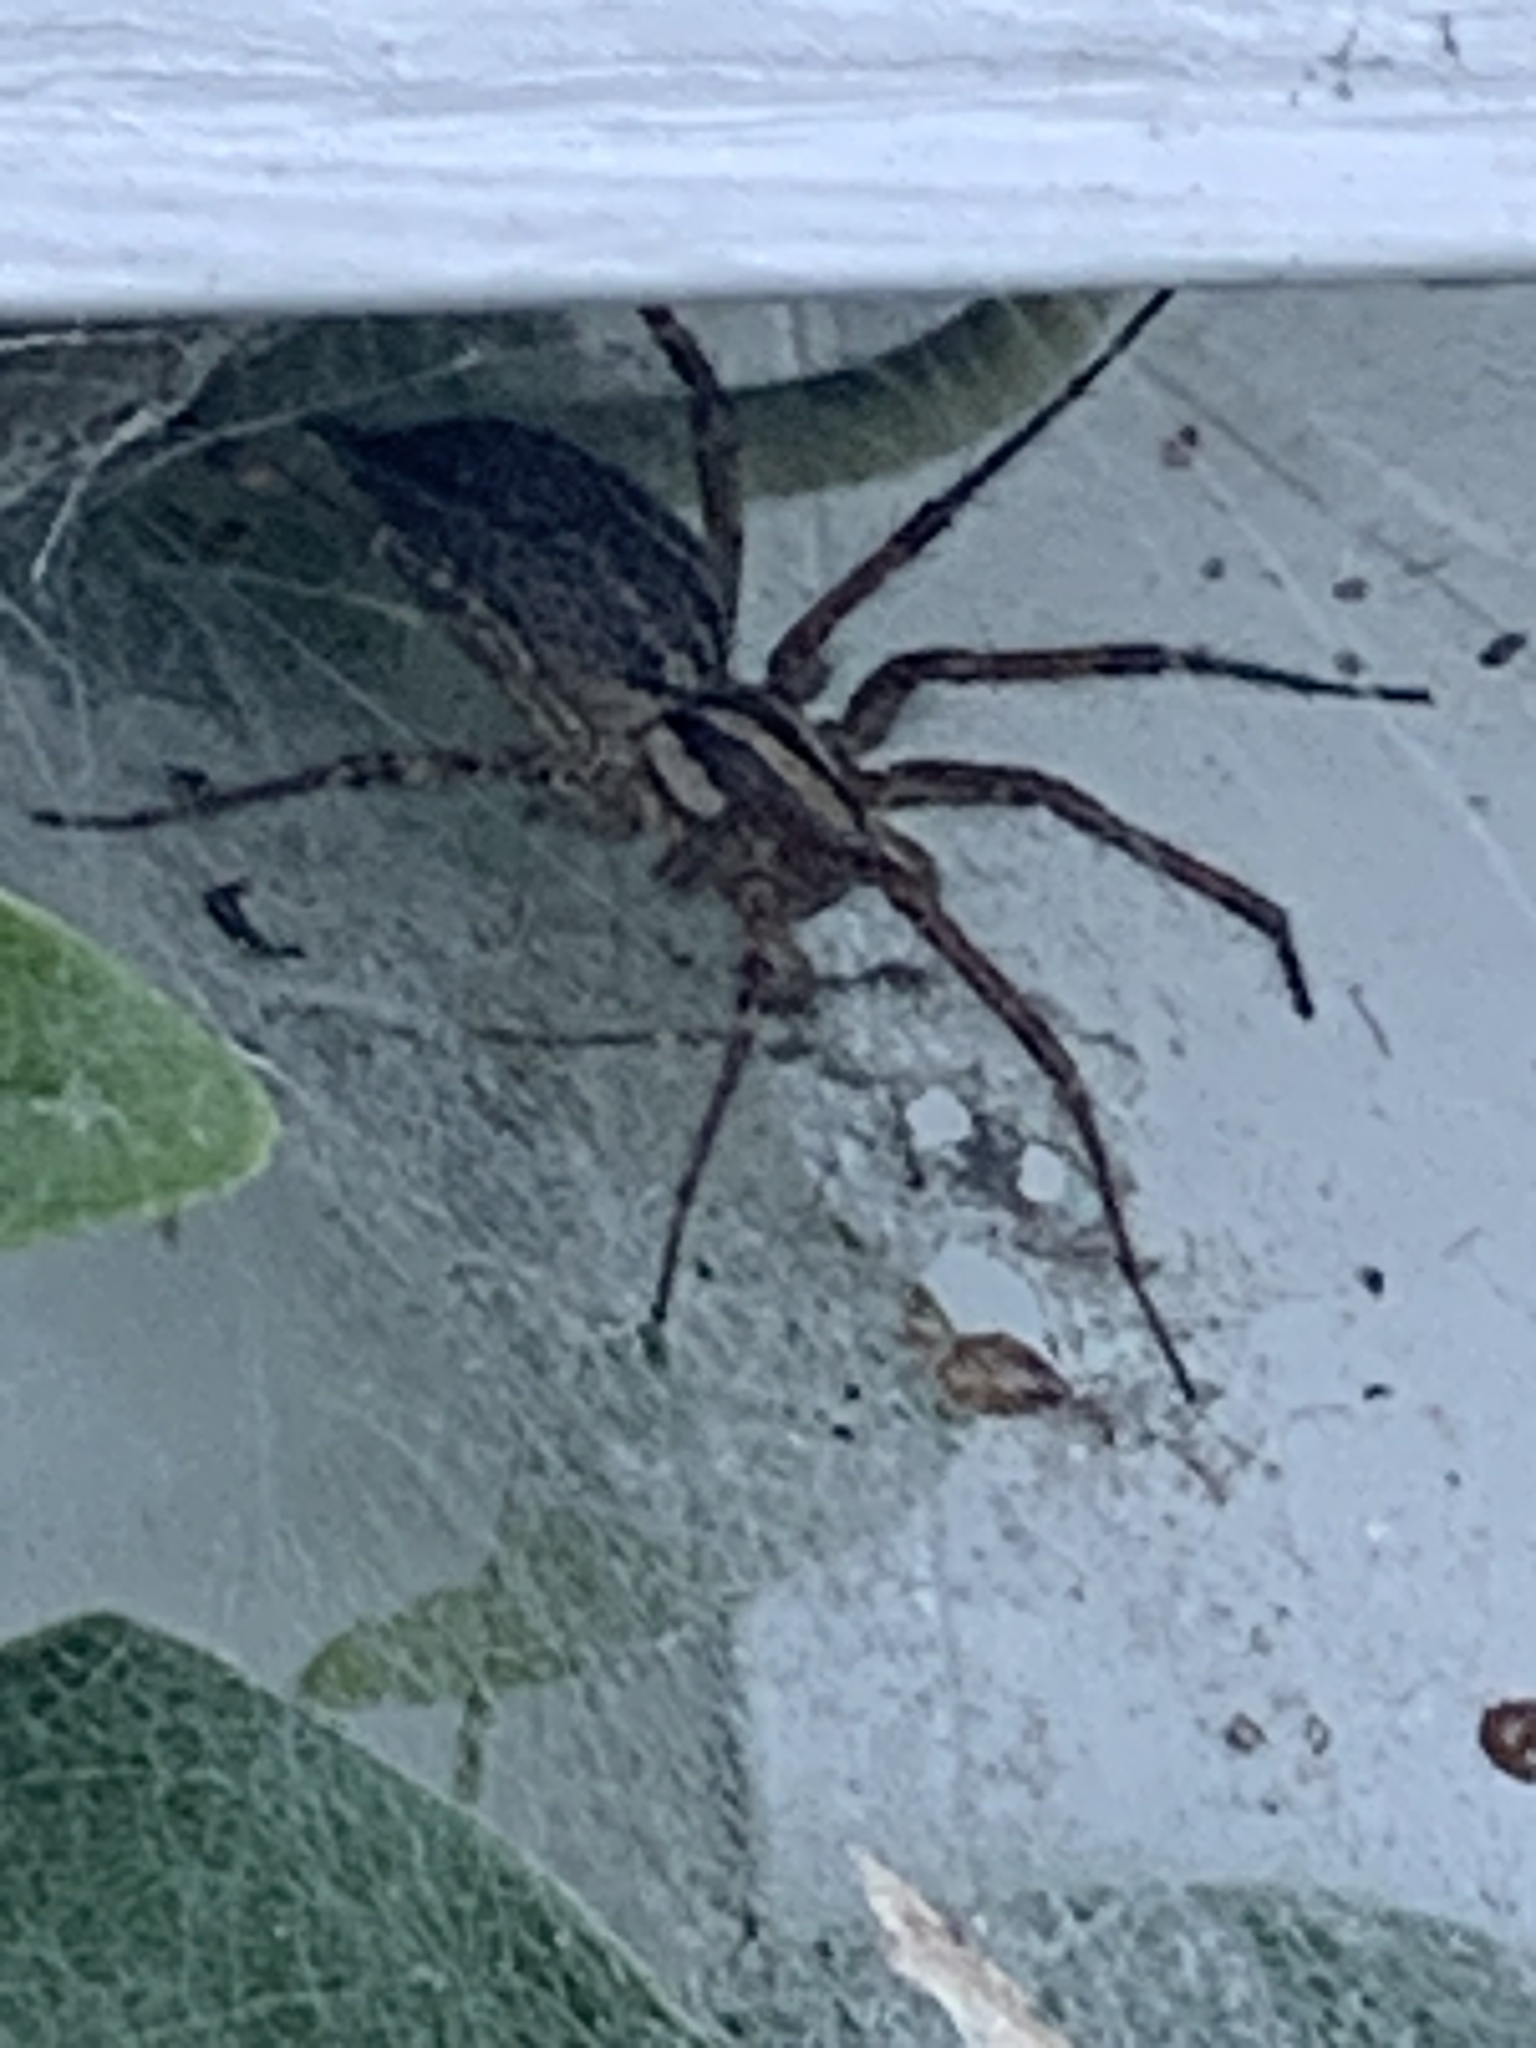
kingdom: Animalia
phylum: Arthropoda
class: Arachnida
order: Araneae
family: Agelenidae
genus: Agelenopsis
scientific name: Agelenopsis
